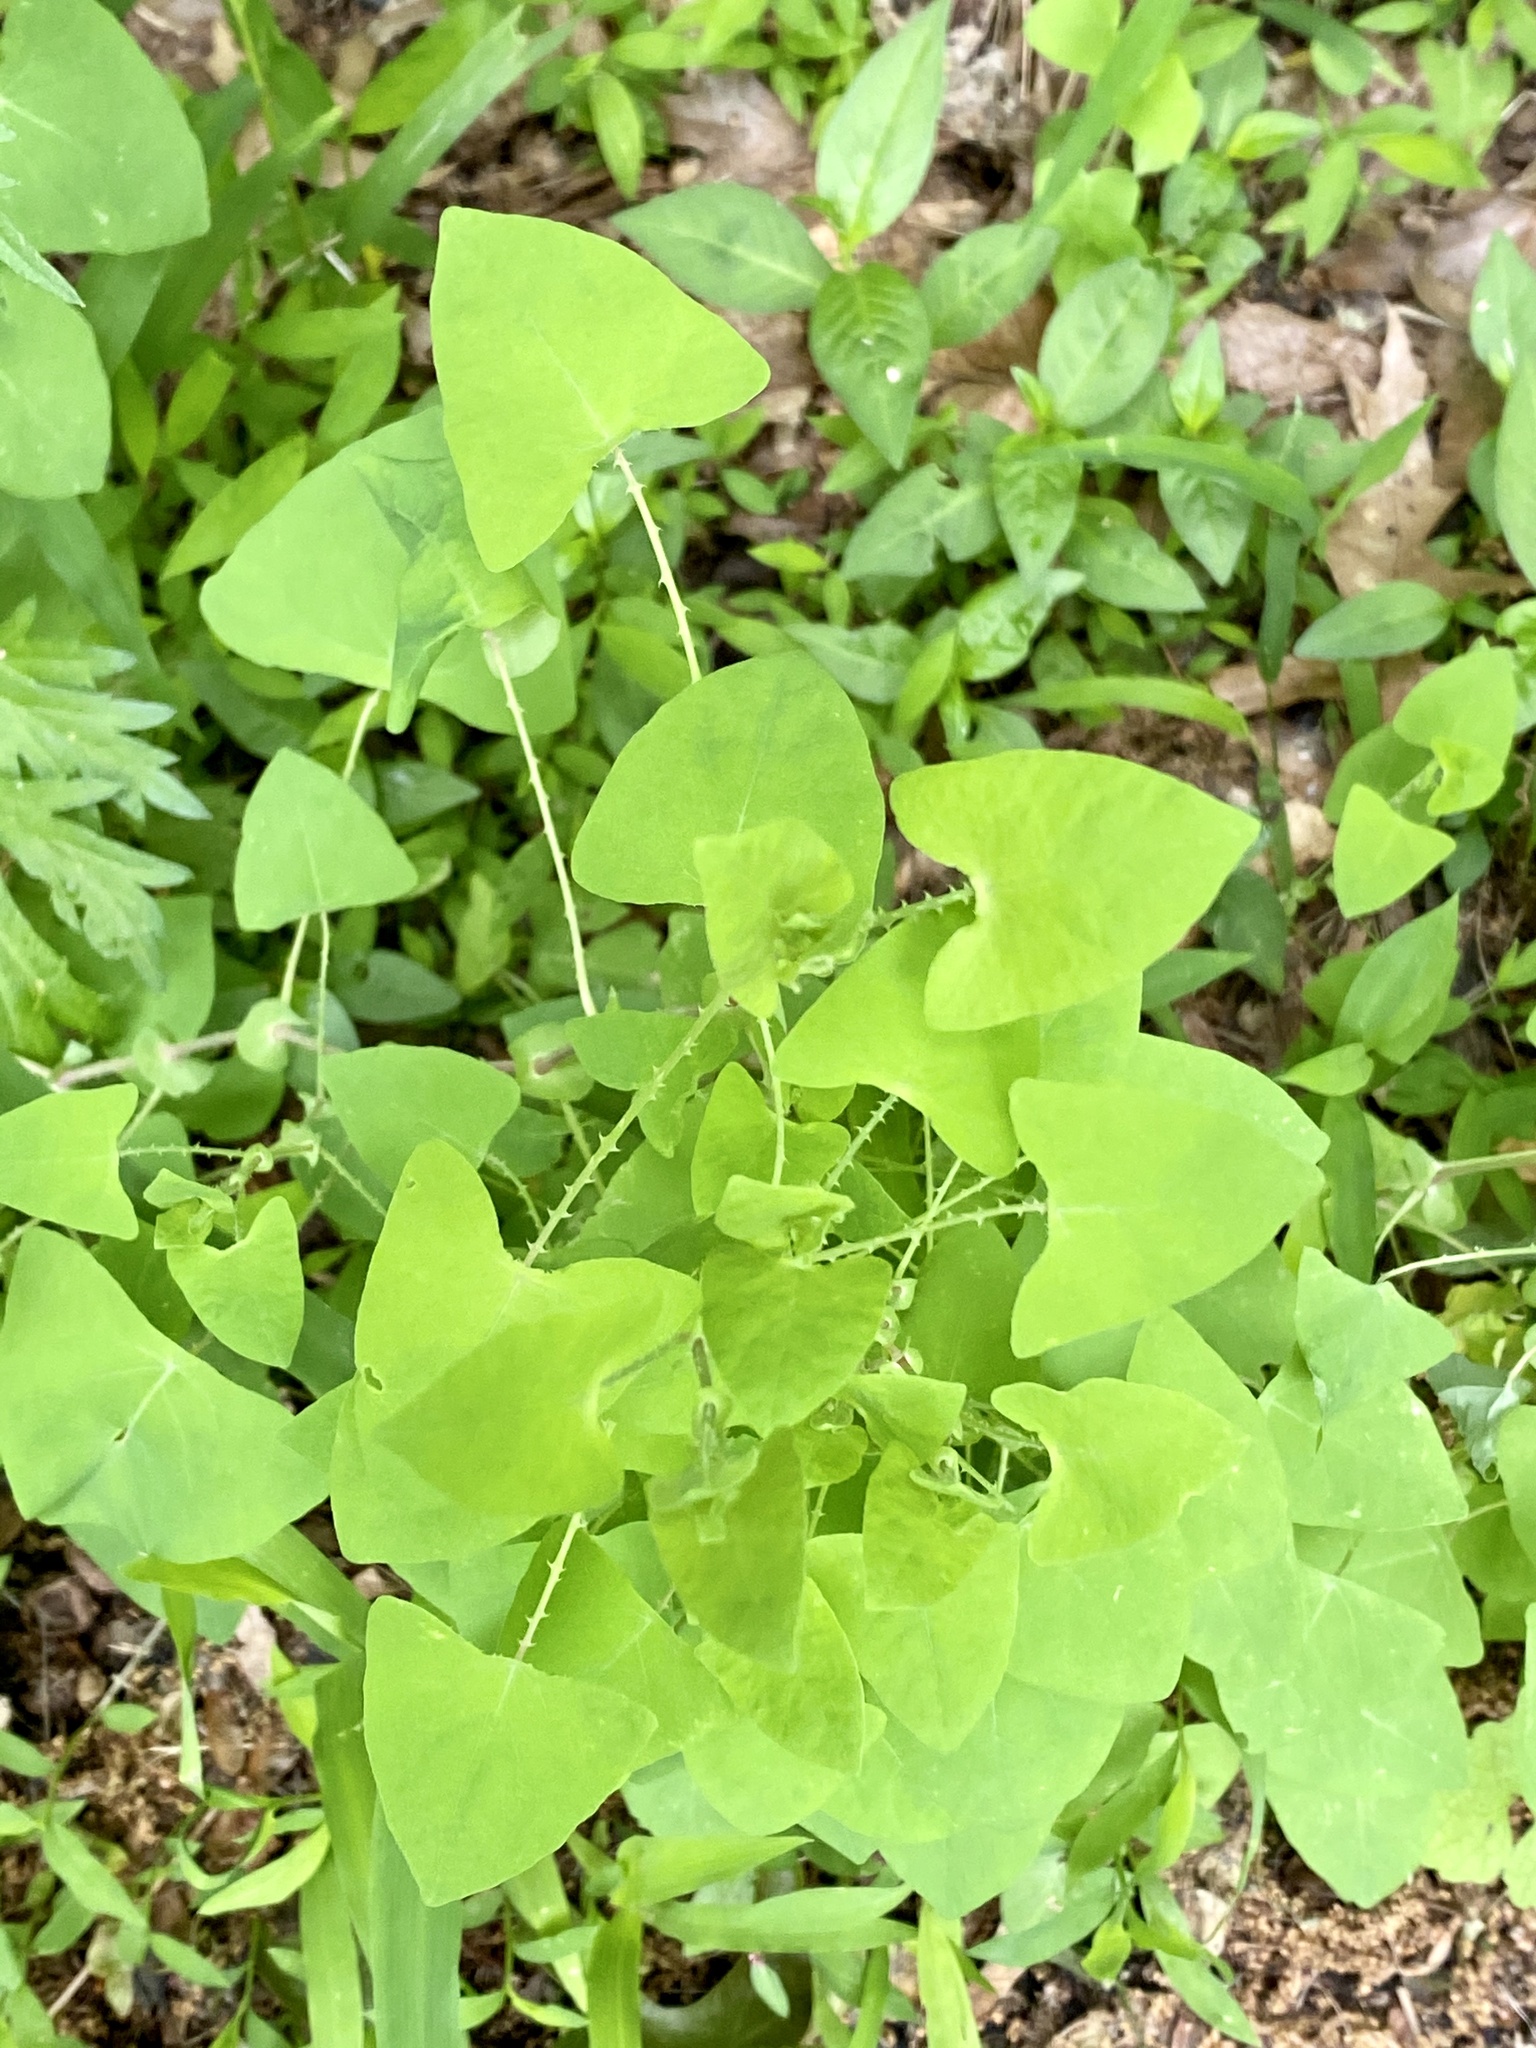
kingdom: Plantae
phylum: Tracheophyta
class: Magnoliopsida
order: Caryophyllales
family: Polygonaceae
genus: Persicaria
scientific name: Persicaria perfoliata
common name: Asiatic tearthumb
